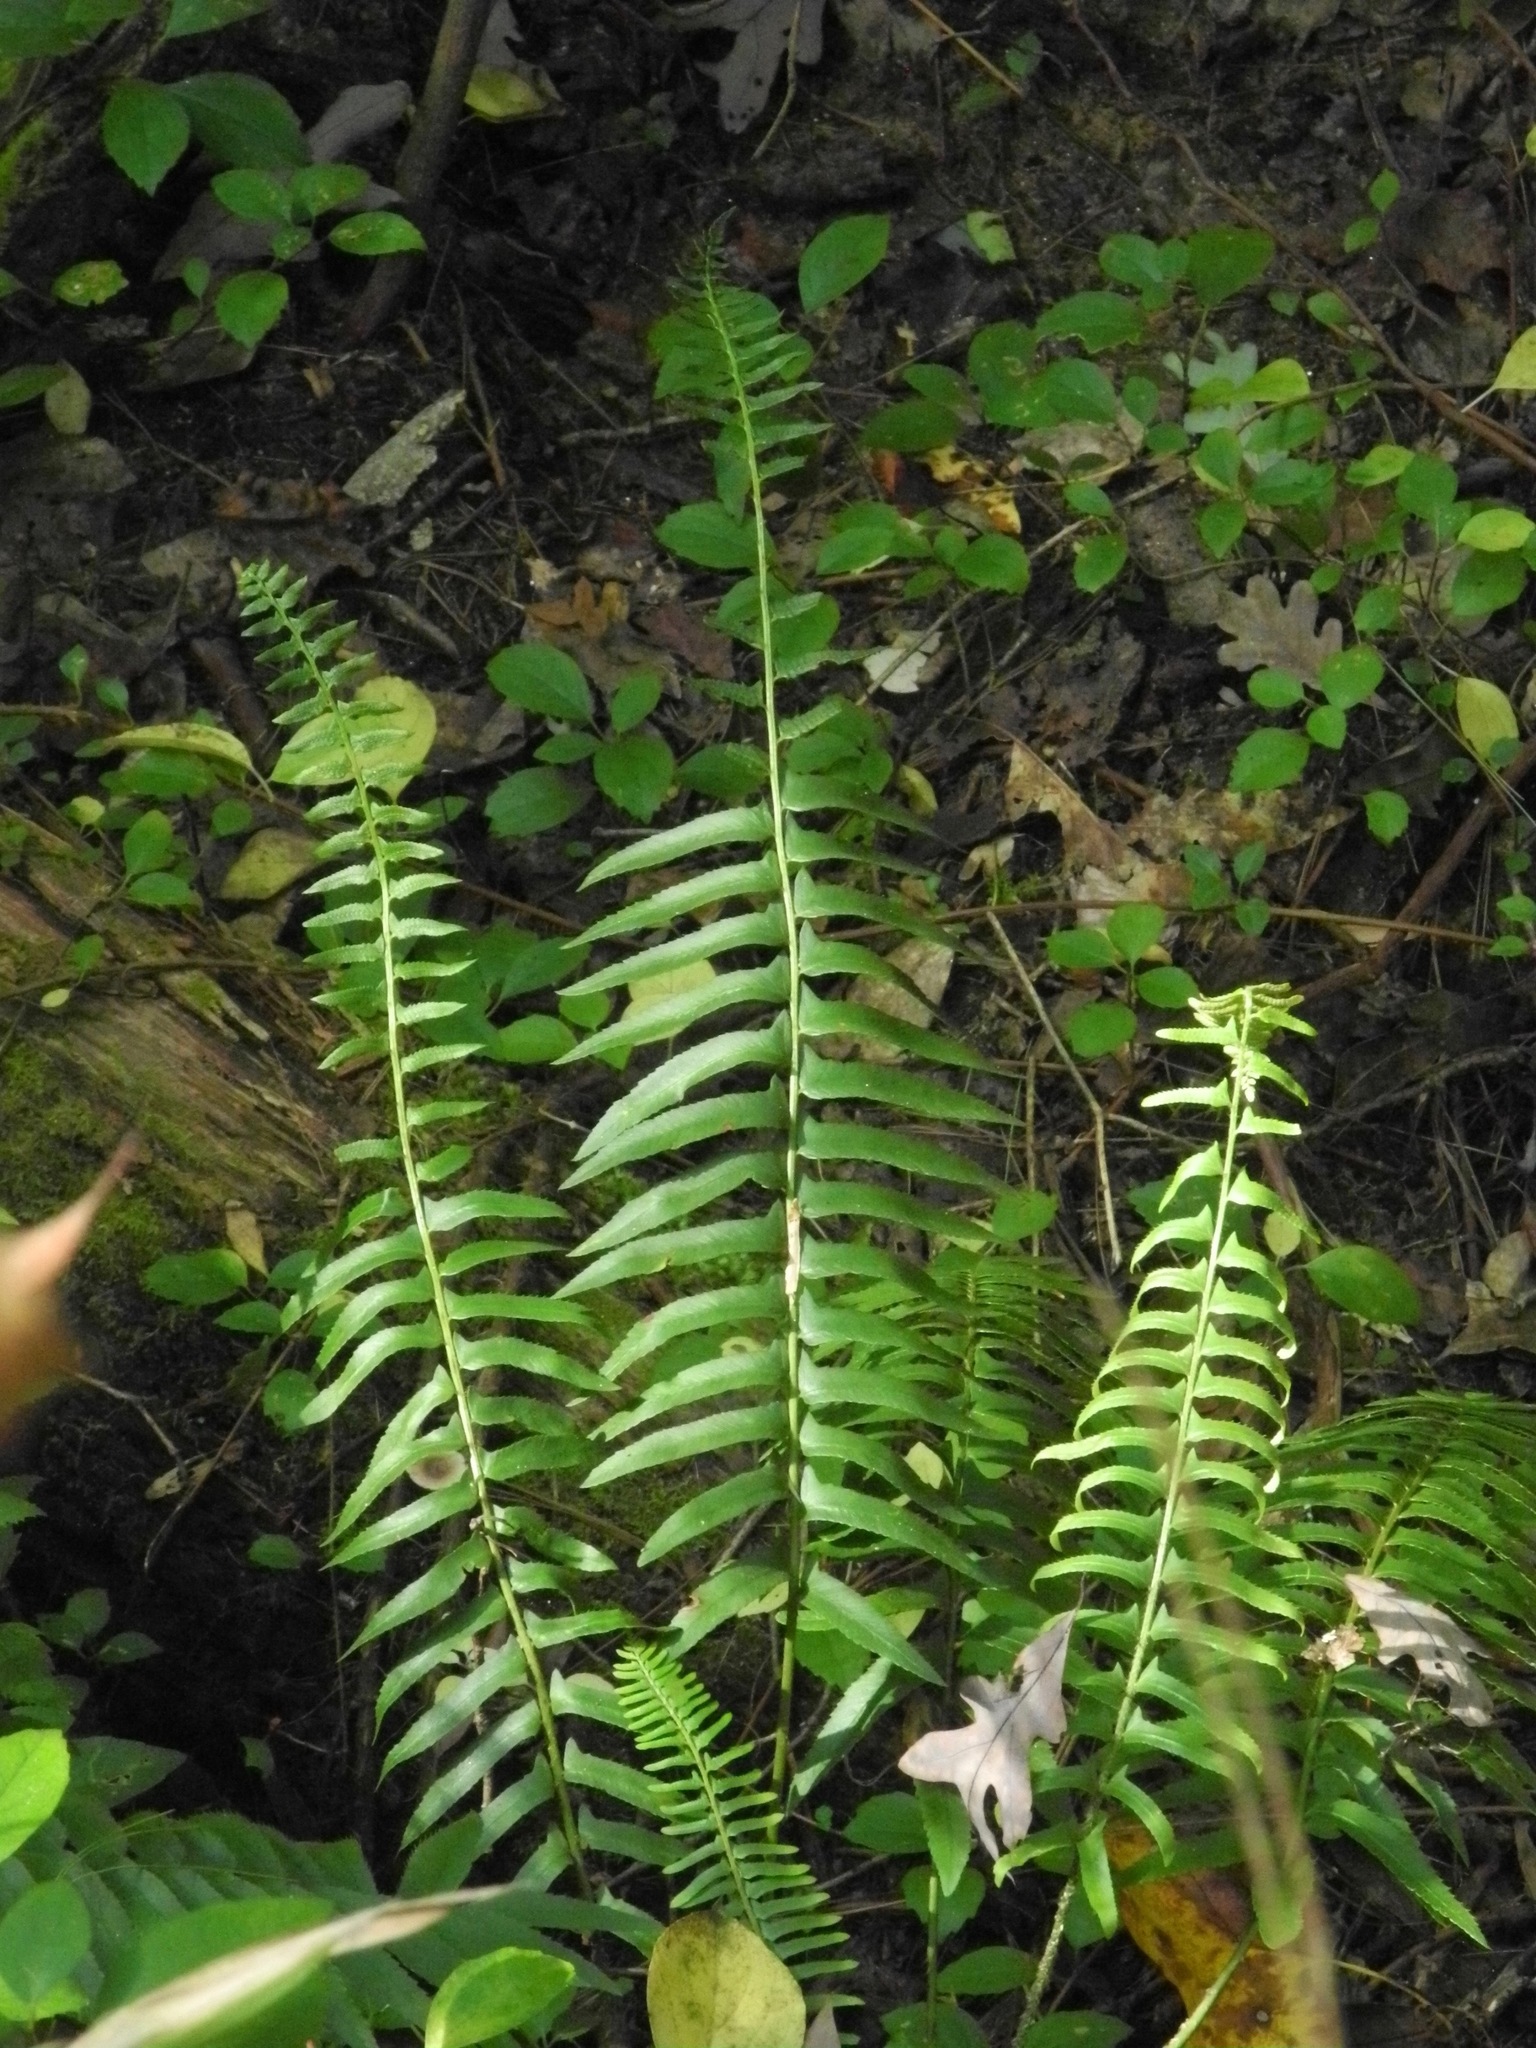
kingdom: Plantae
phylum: Tracheophyta
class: Polypodiopsida
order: Polypodiales
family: Dryopteridaceae
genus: Polystichum
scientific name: Polystichum acrostichoides
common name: Christmas fern
